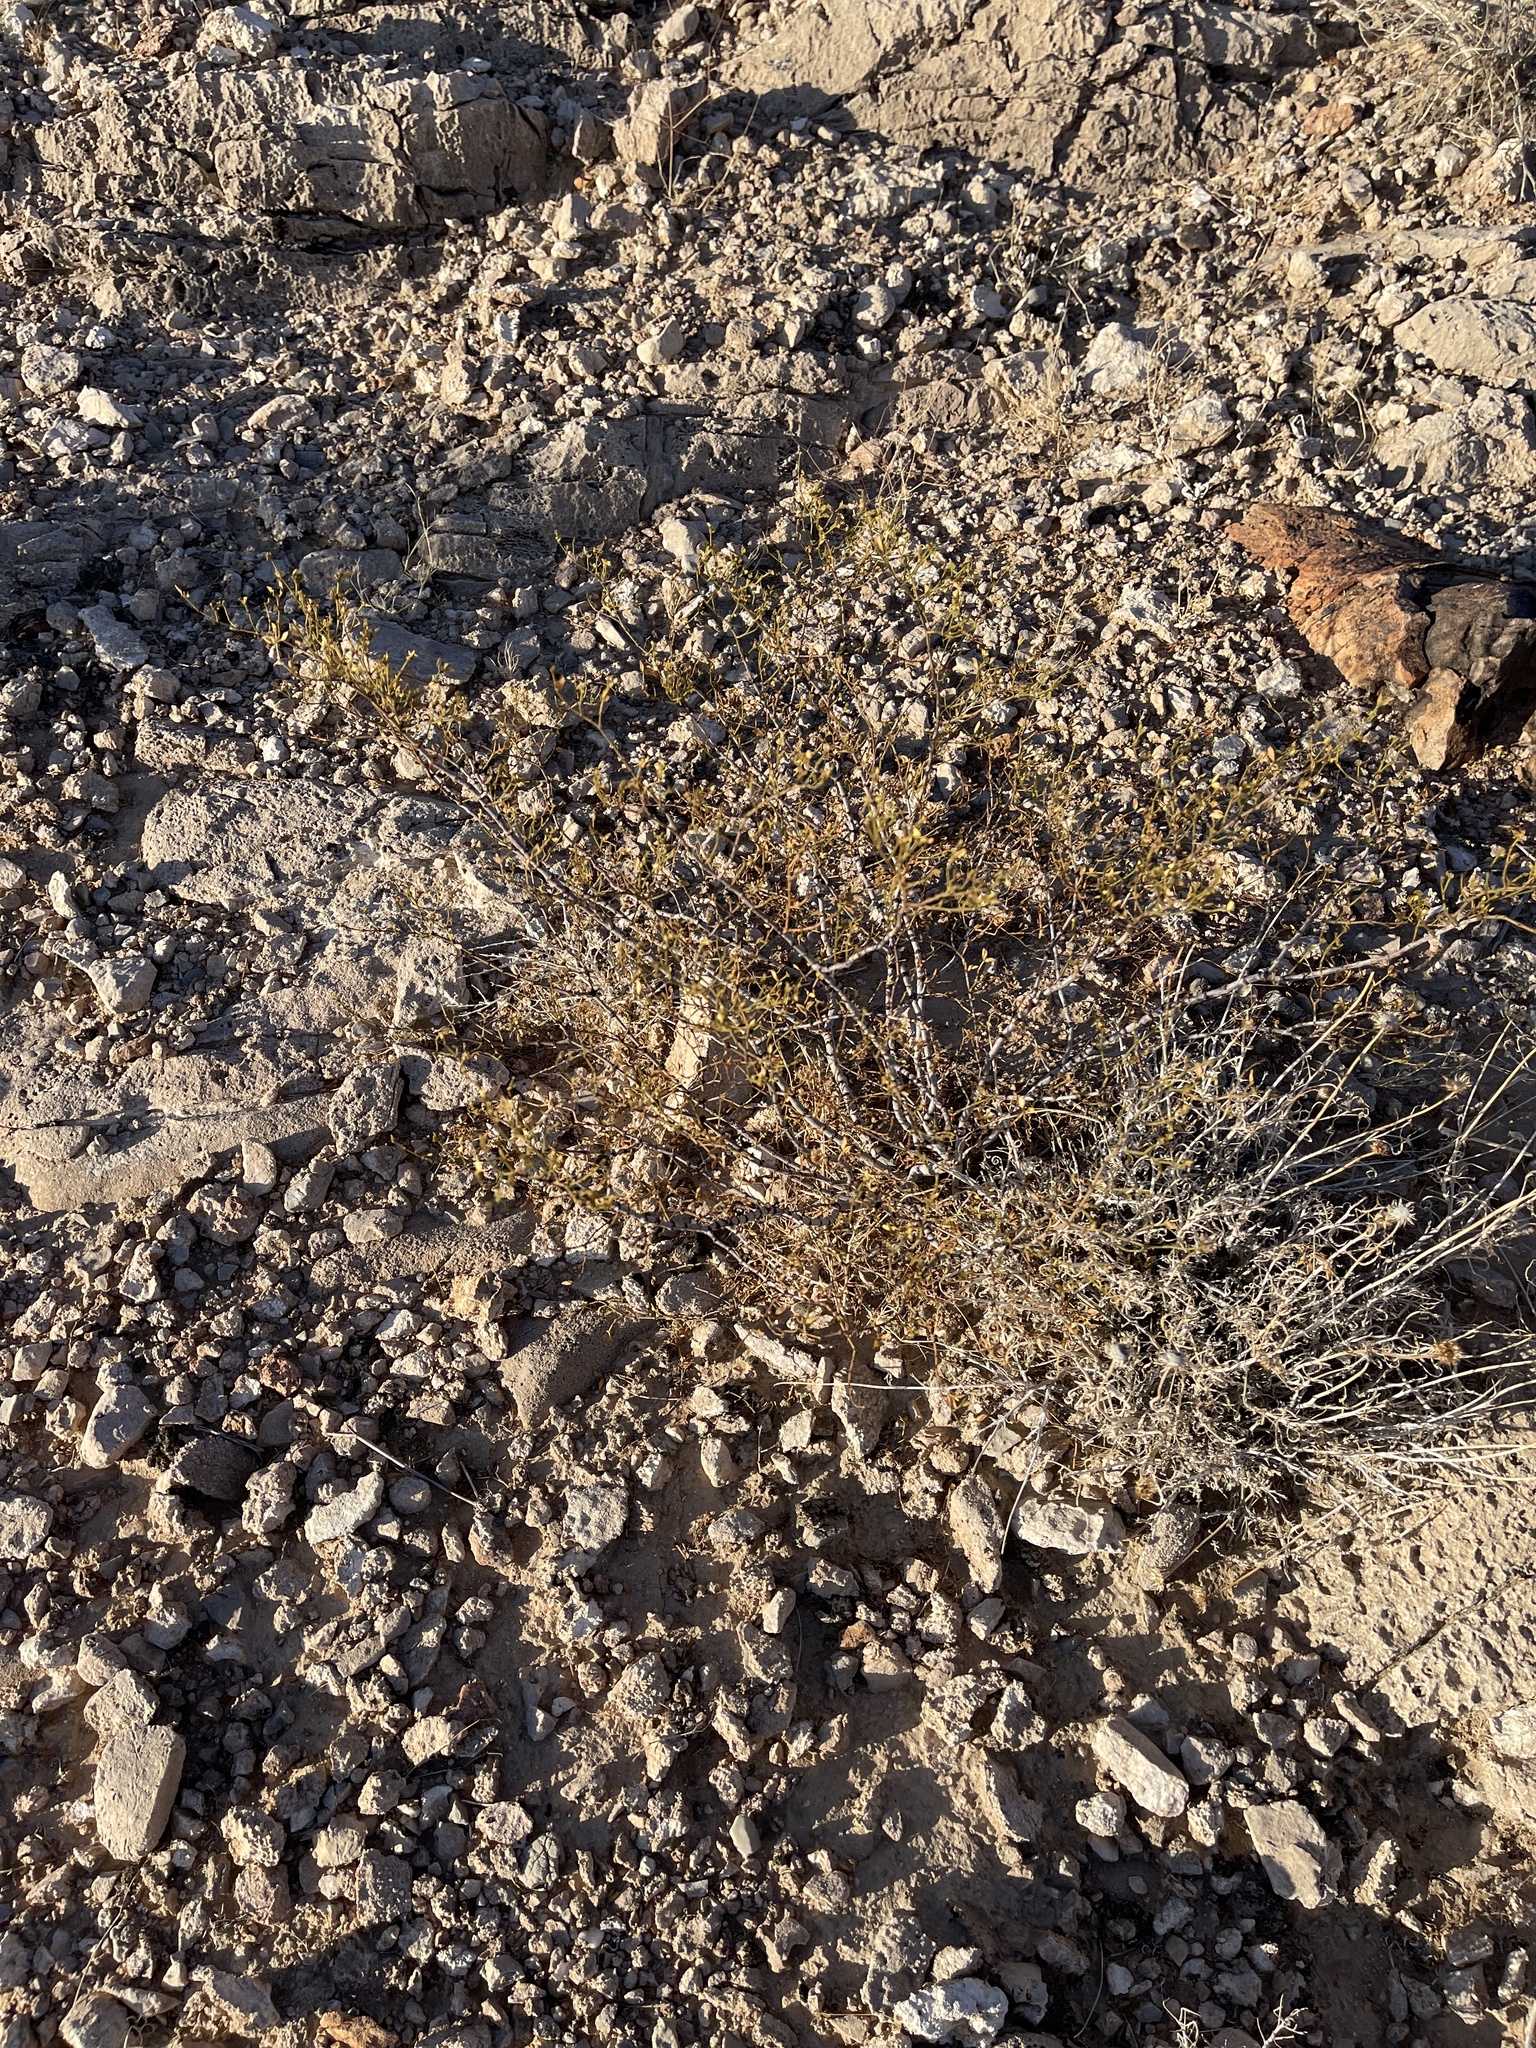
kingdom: Plantae
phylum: Tracheophyta
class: Magnoliopsida
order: Zygophyllales
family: Zygophyllaceae
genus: Larrea
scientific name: Larrea tridentata
